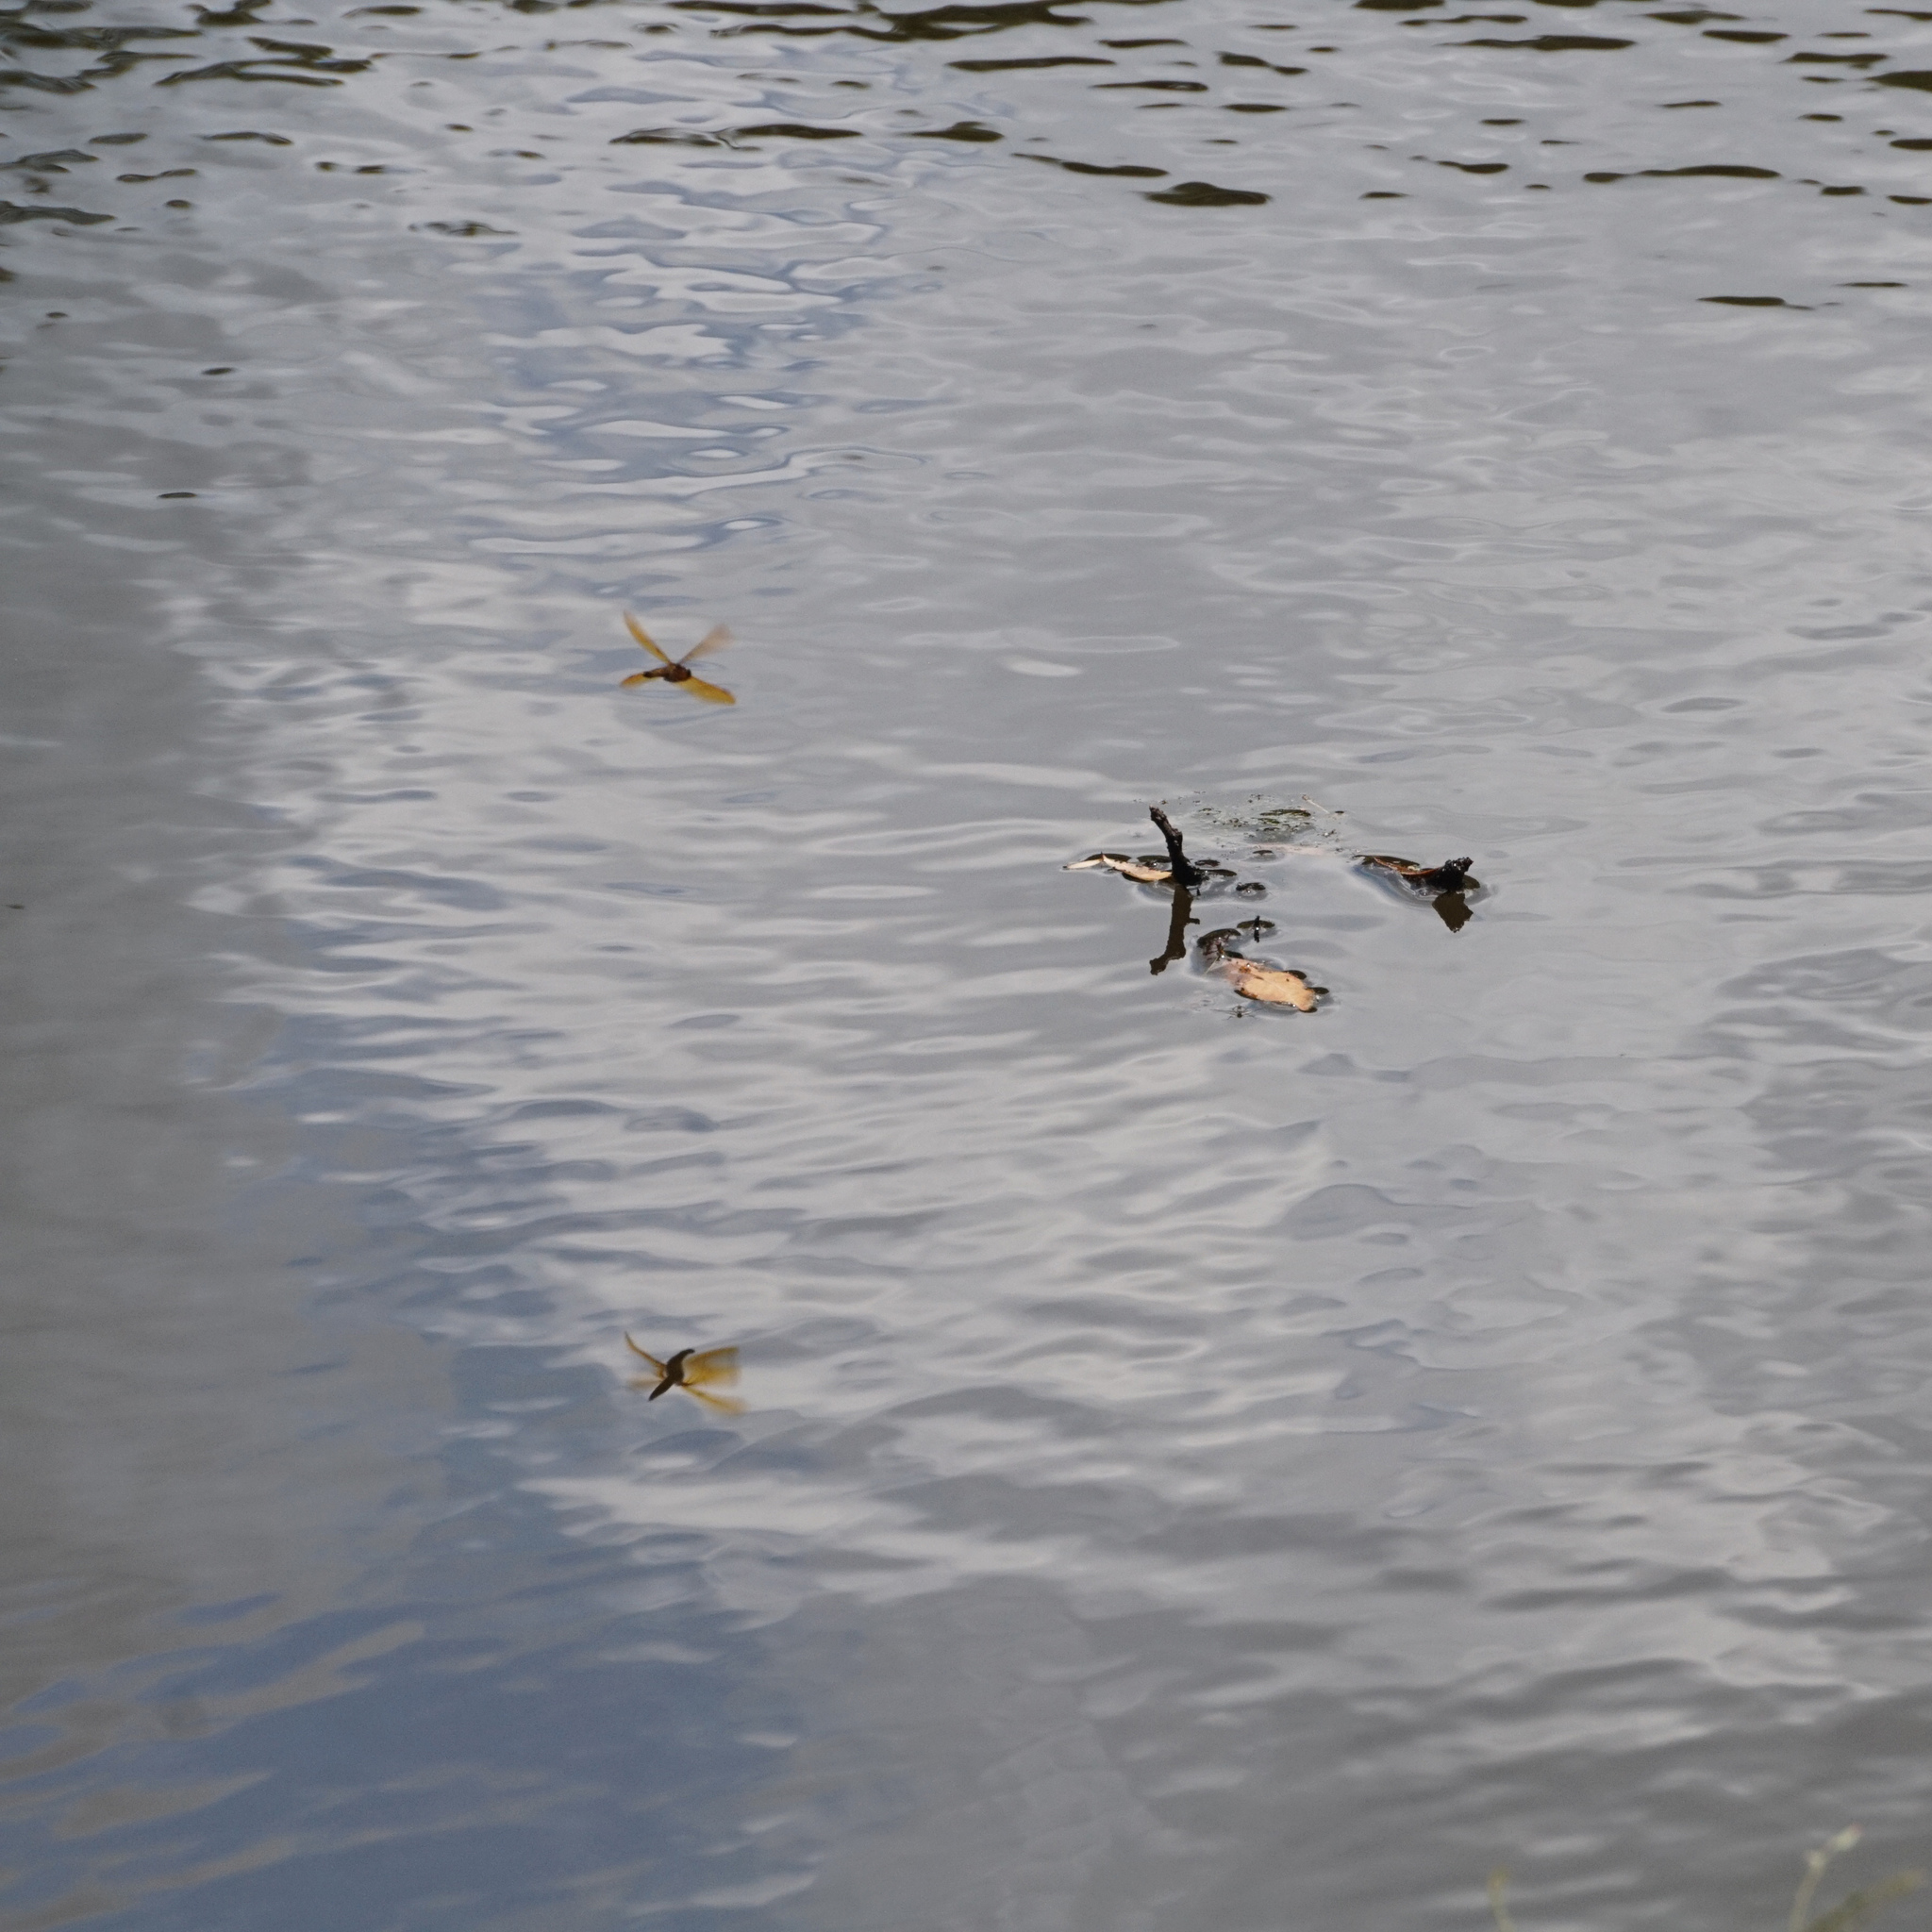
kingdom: Animalia
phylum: Arthropoda
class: Insecta
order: Odonata
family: Libellulidae
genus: Perithemis
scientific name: Perithemis tenera
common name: Eastern amberwing
